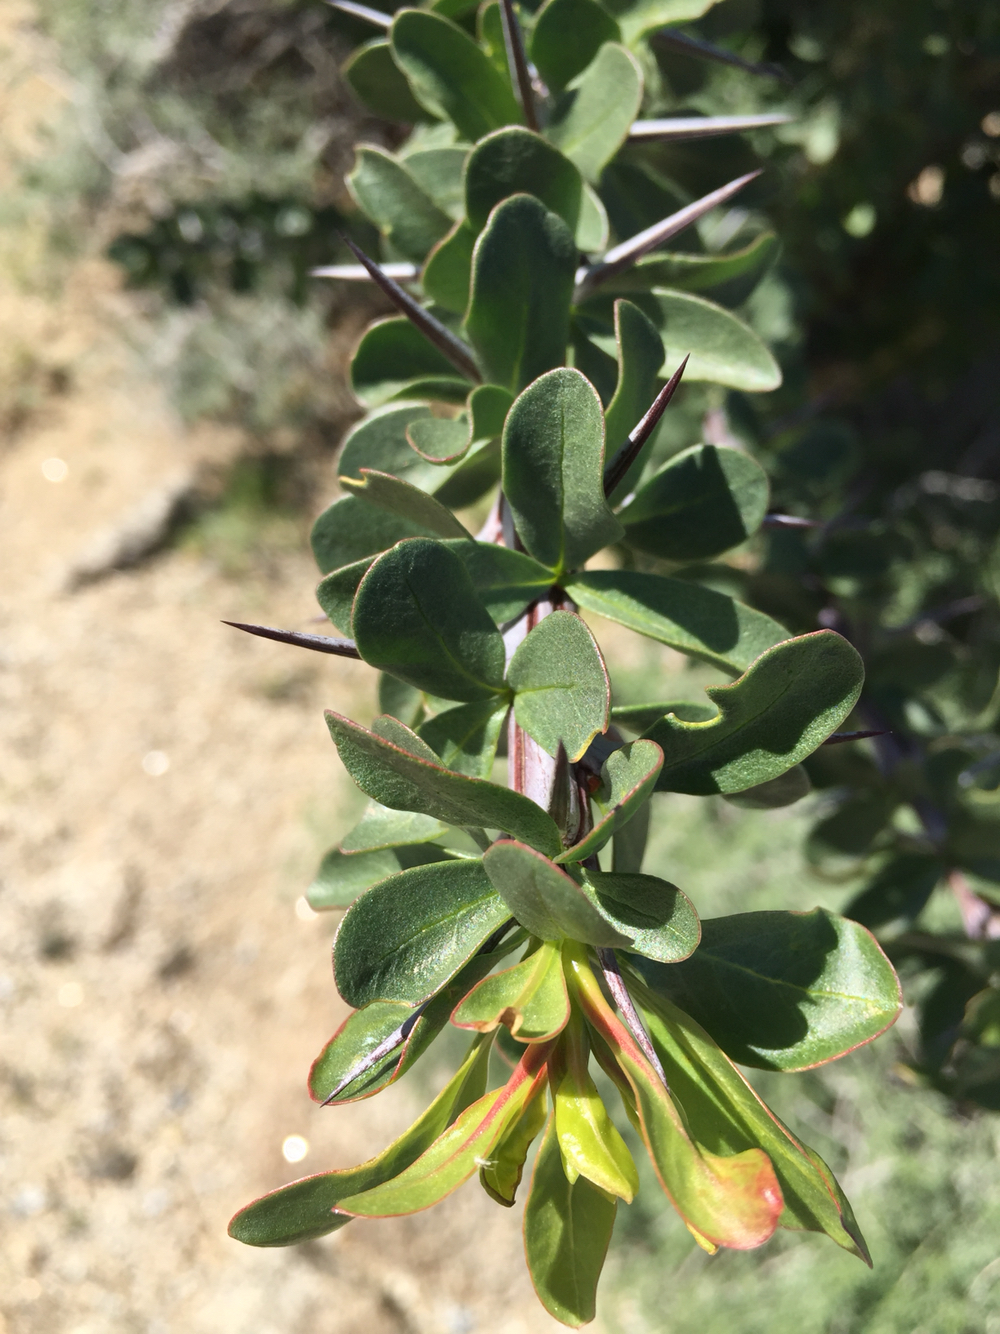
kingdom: Plantae
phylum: Tracheophyta
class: Magnoliopsida
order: Ericales
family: Fouquieriaceae
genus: Fouquieria
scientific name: Fouquieria splendens
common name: Vine-cactus
